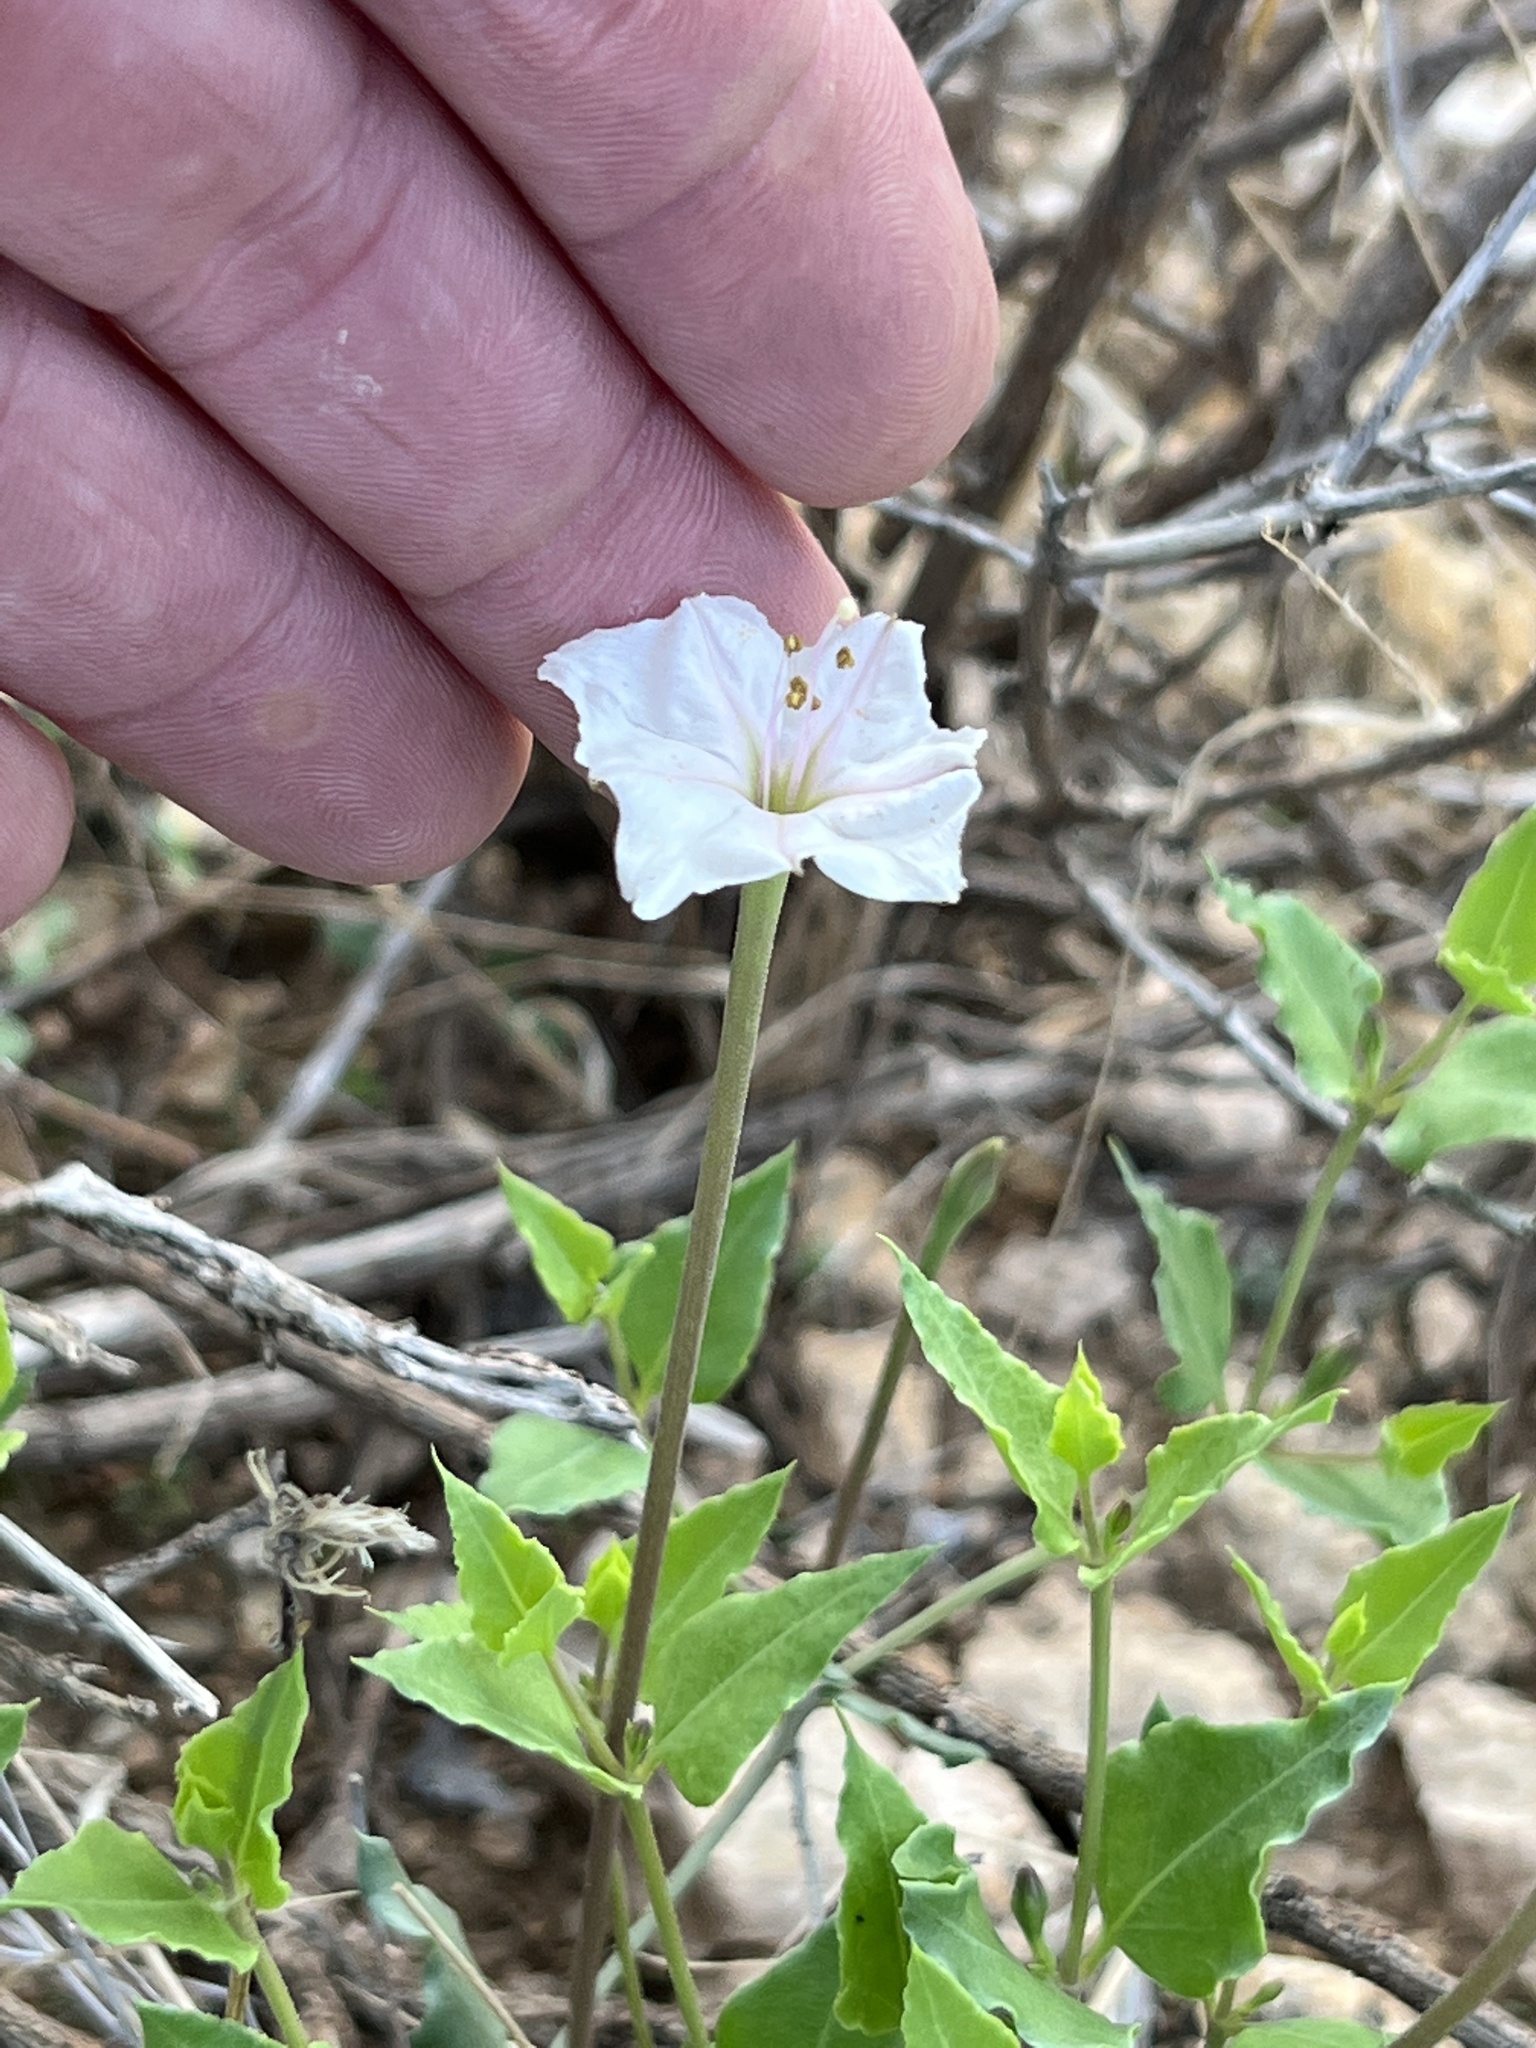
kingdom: Plantae
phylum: Tracheophyta
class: Magnoliopsida
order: Caryophyllales
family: Nyctaginaceae
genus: Acleisanthes
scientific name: Acleisanthes longiflora
